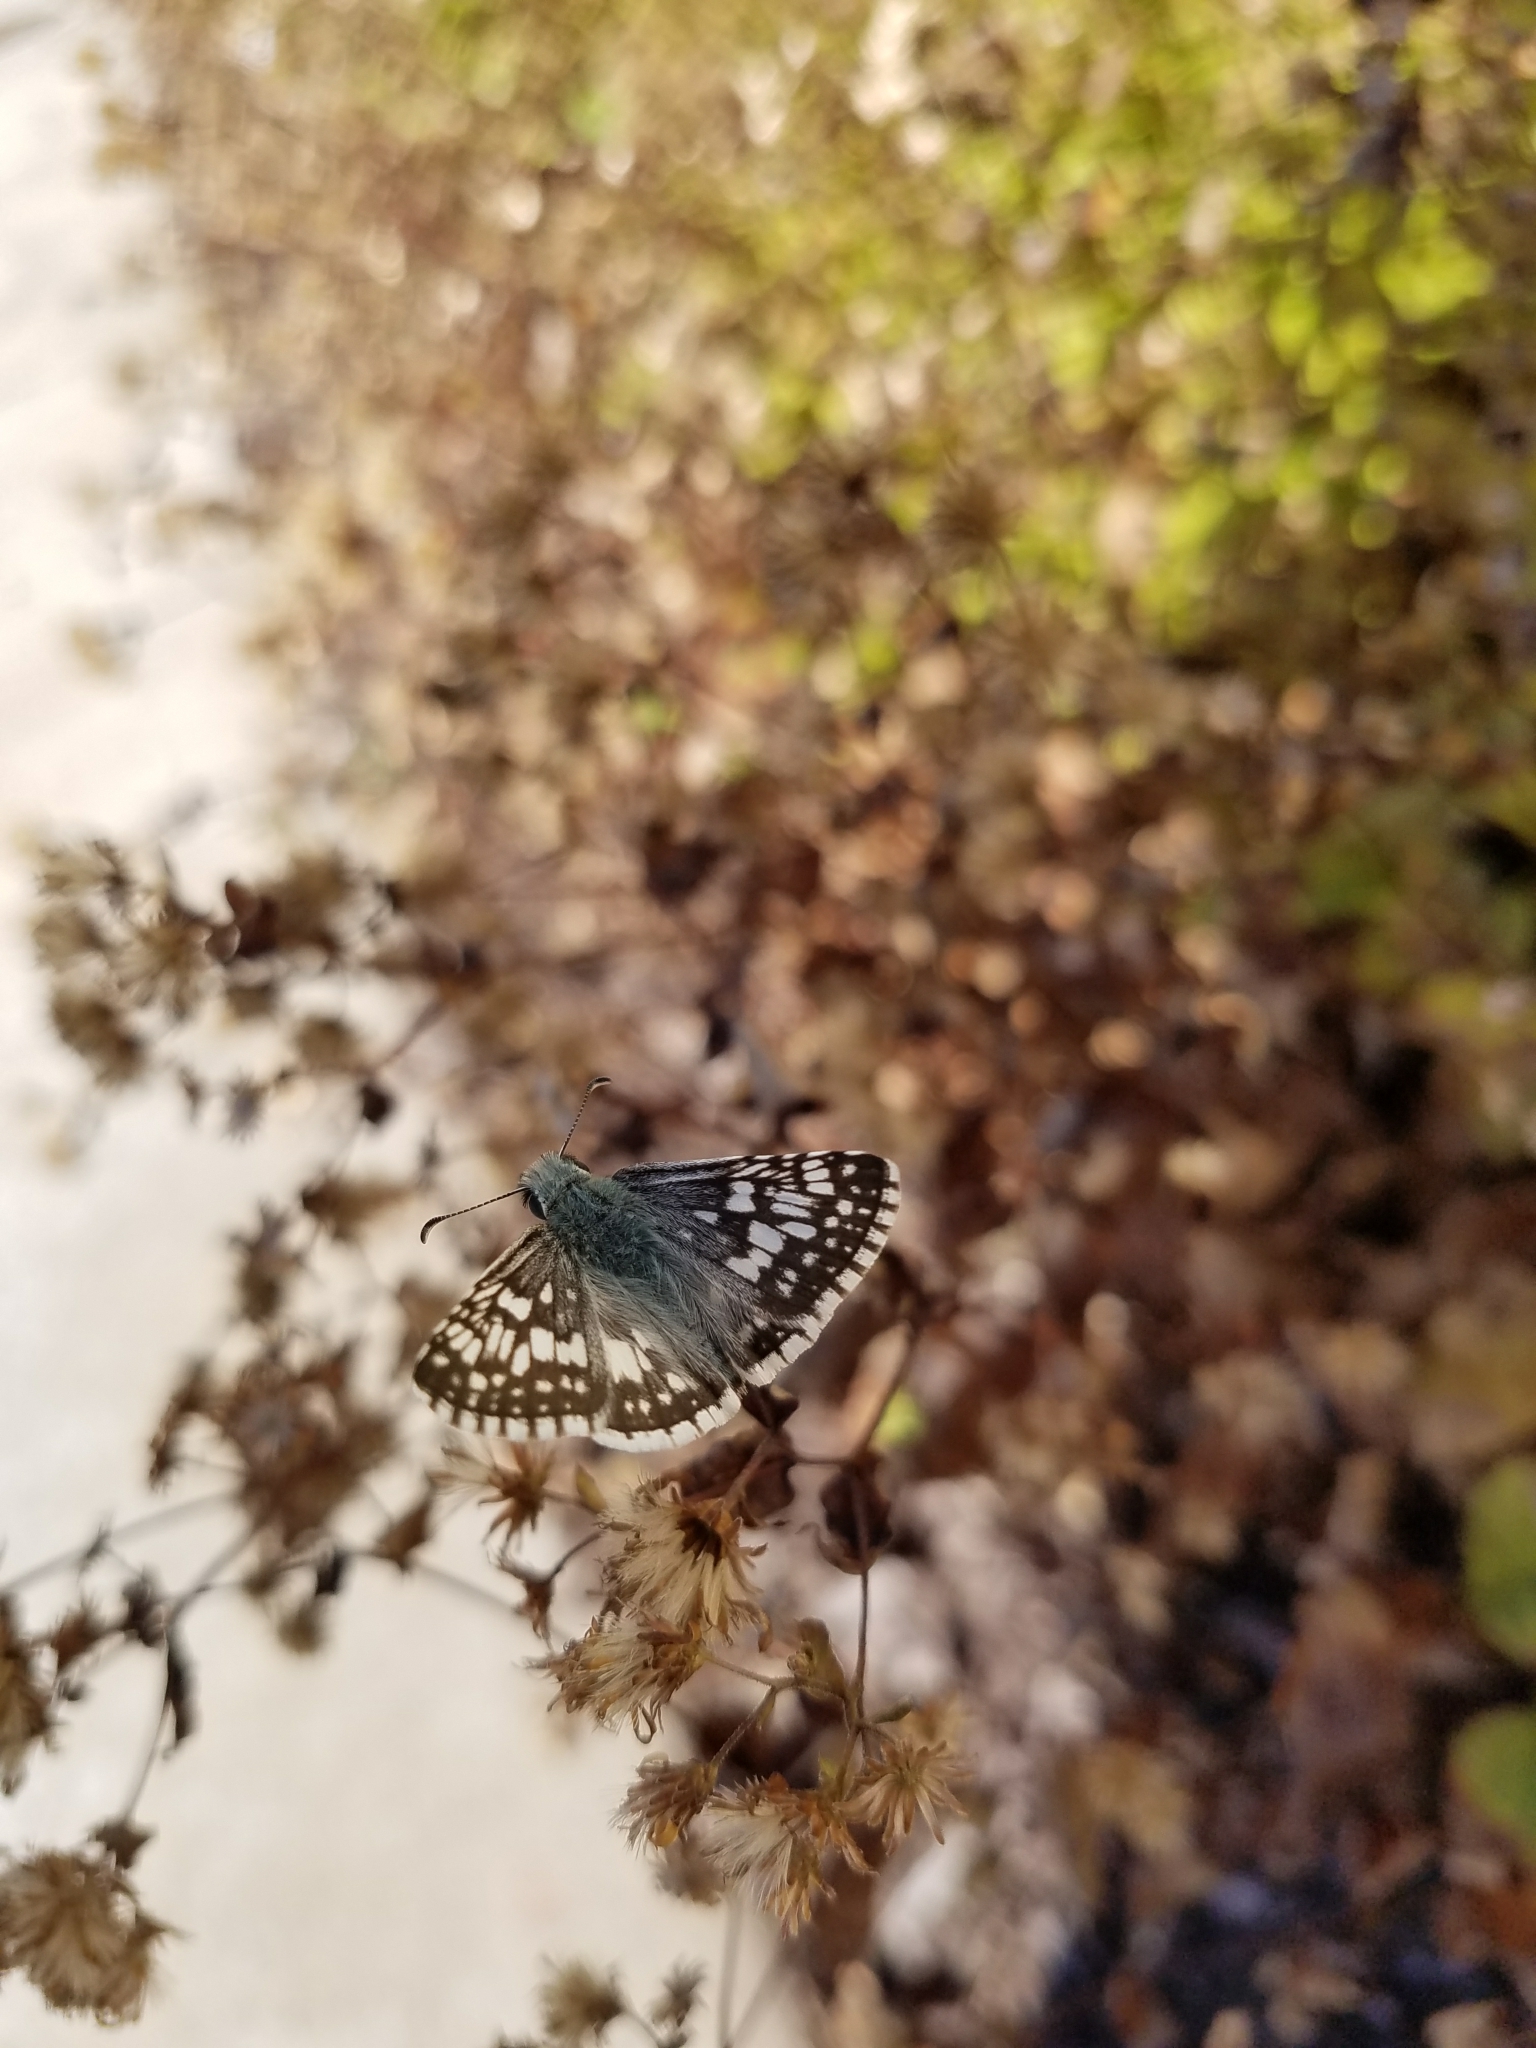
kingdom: Animalia
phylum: Arthropoda
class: Insecta
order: Lepidoptera
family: Hesperiidae
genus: Burnsius
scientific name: Burnsius communis
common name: Common checkered-skipper
